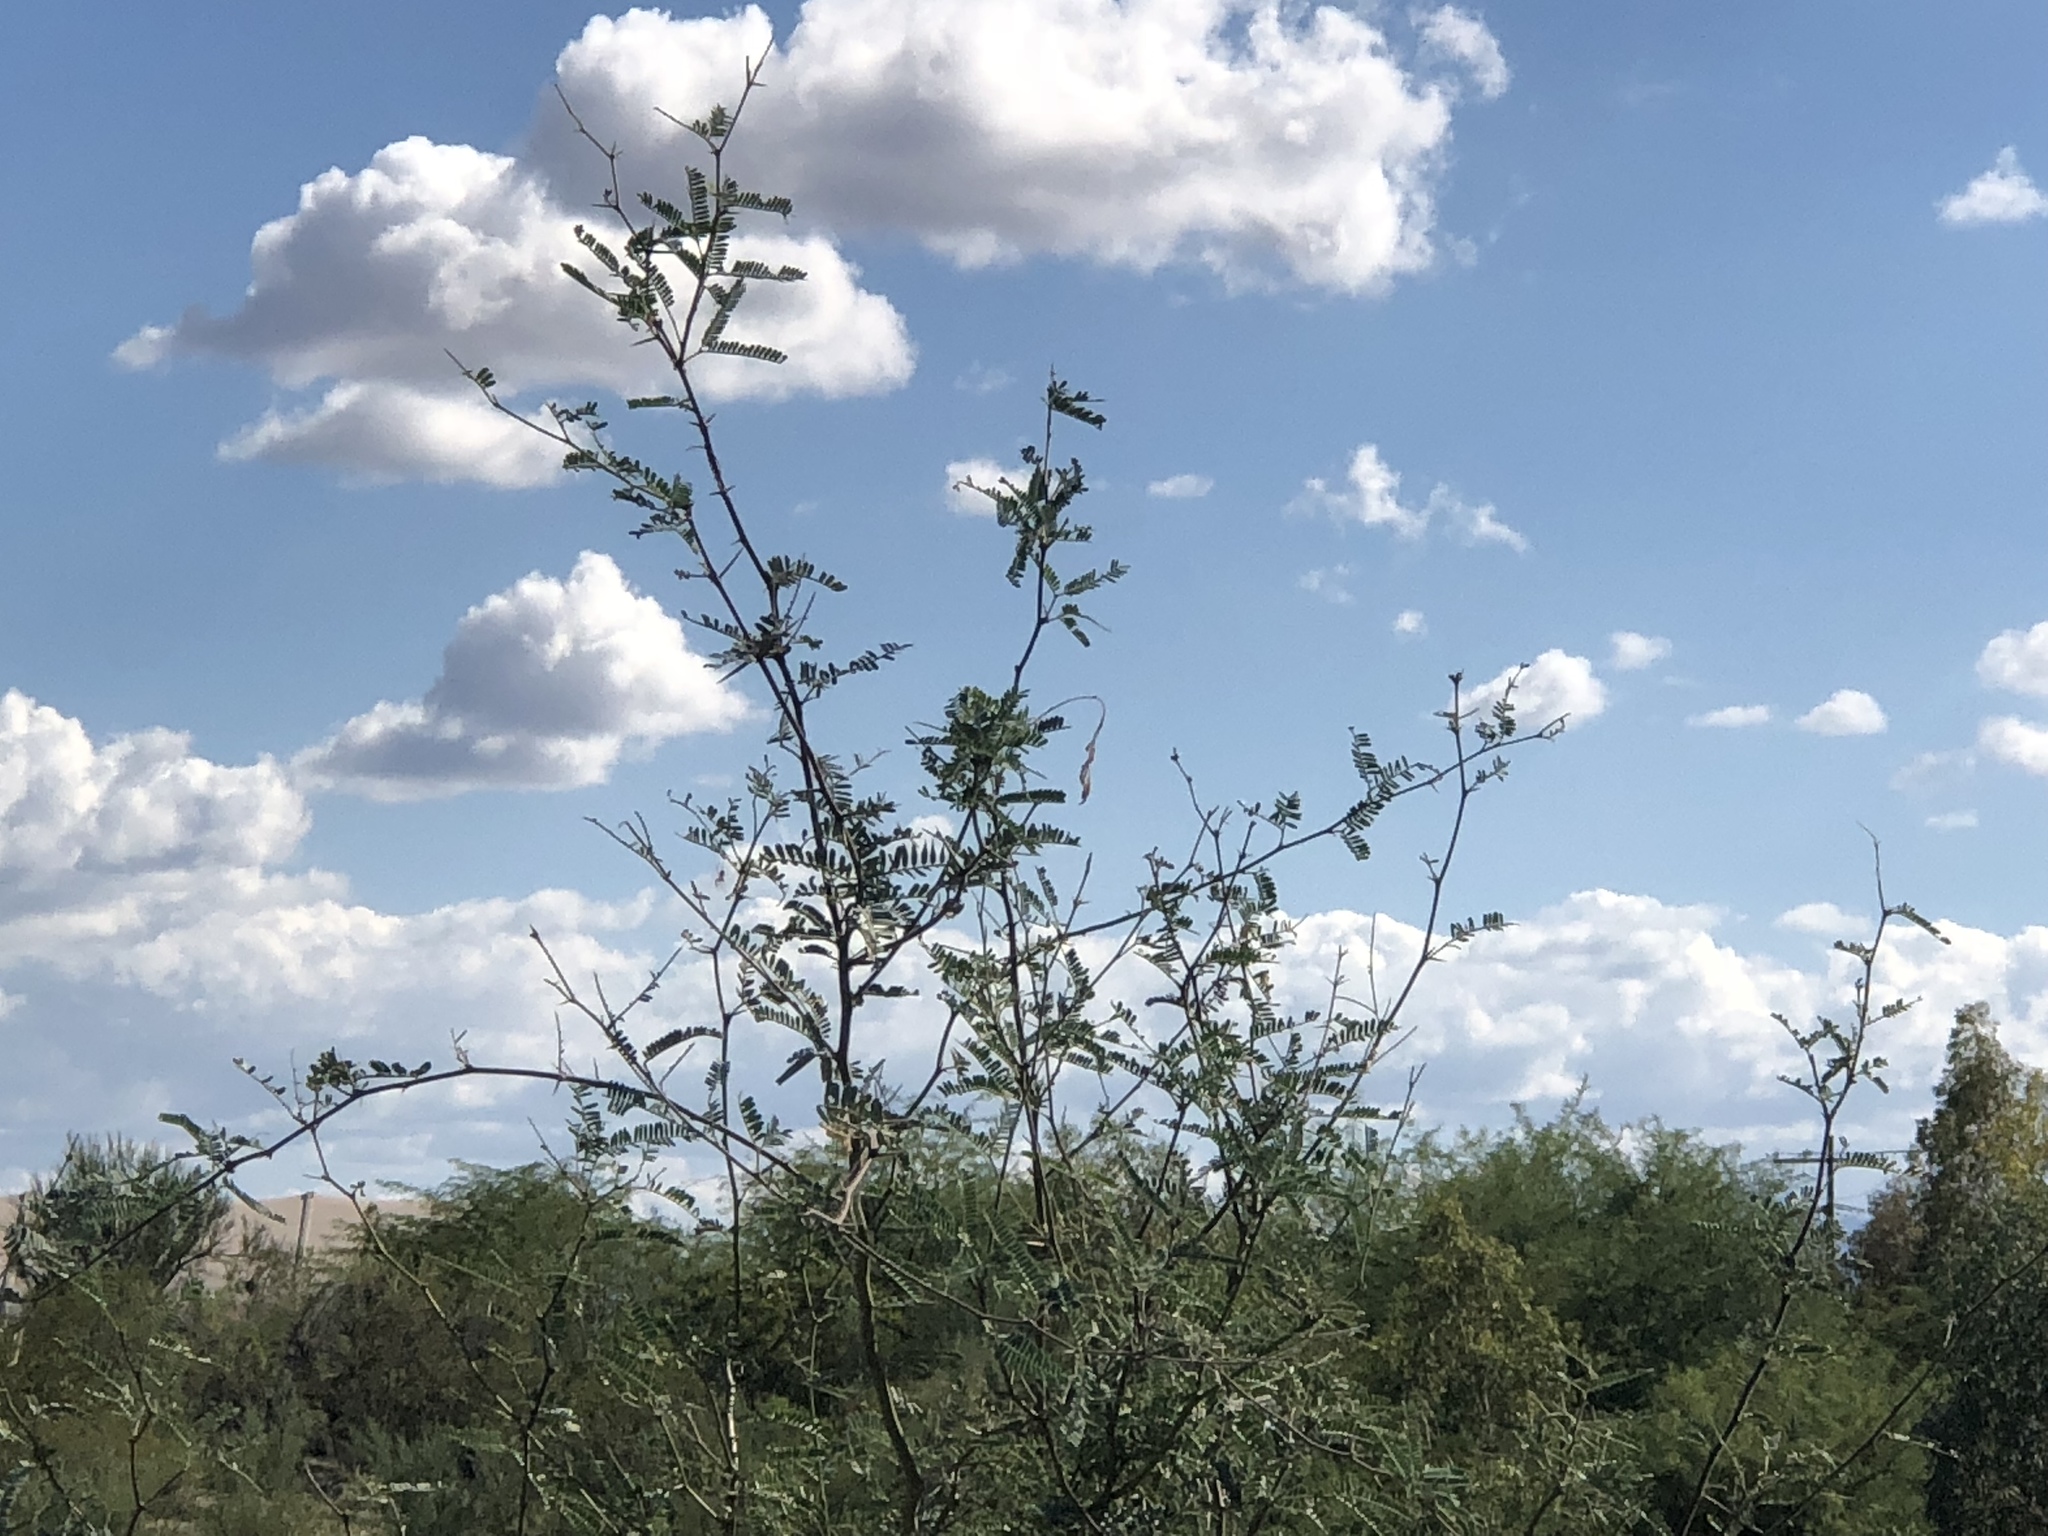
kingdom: Plantae
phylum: Tracheophyta
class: Magnoliopsida
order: Fabales
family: Fabaceae
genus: Prosopis
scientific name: Prosopis velutina
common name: Velvet mesquite
